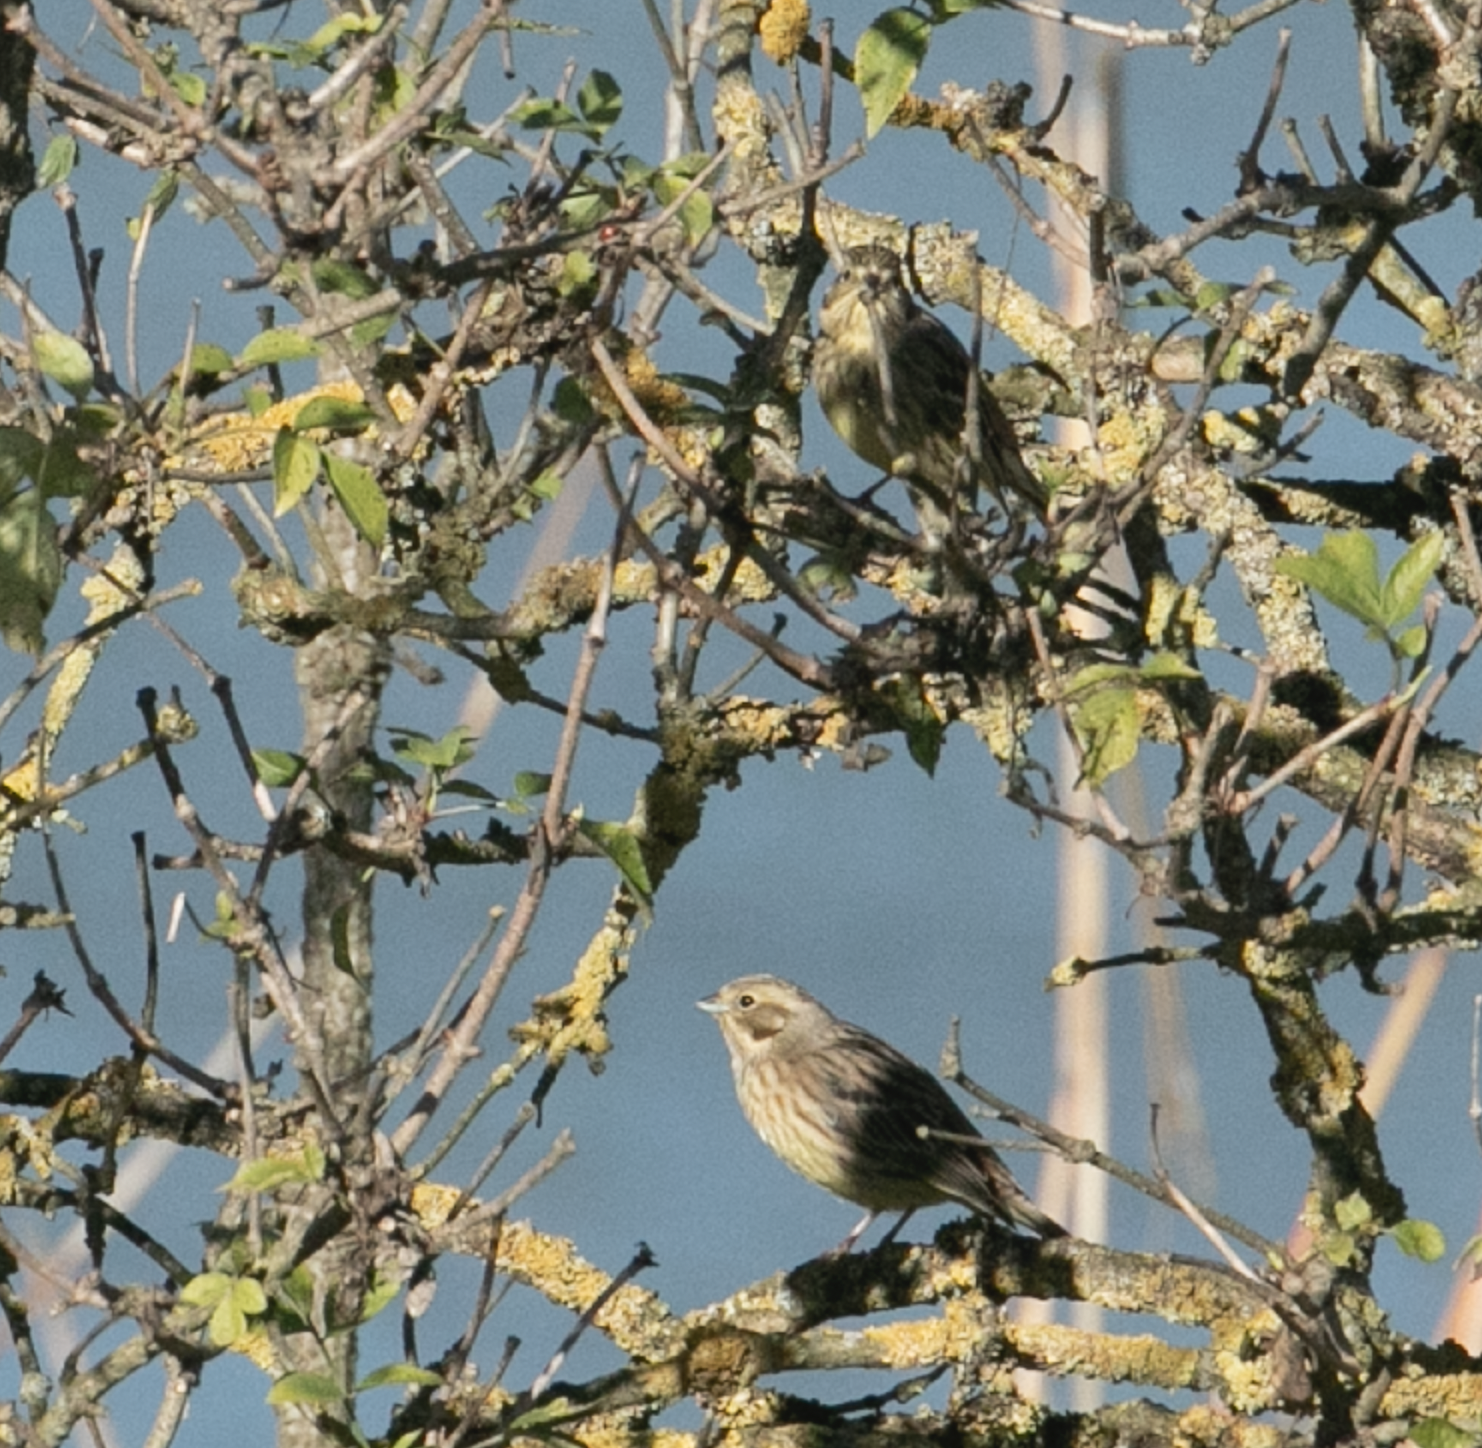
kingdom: Animalia
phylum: Chordata
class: Aves
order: Passeriformes
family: Emberizidae
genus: Emberiza
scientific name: Emberiza citrinella
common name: Yellowhammer
